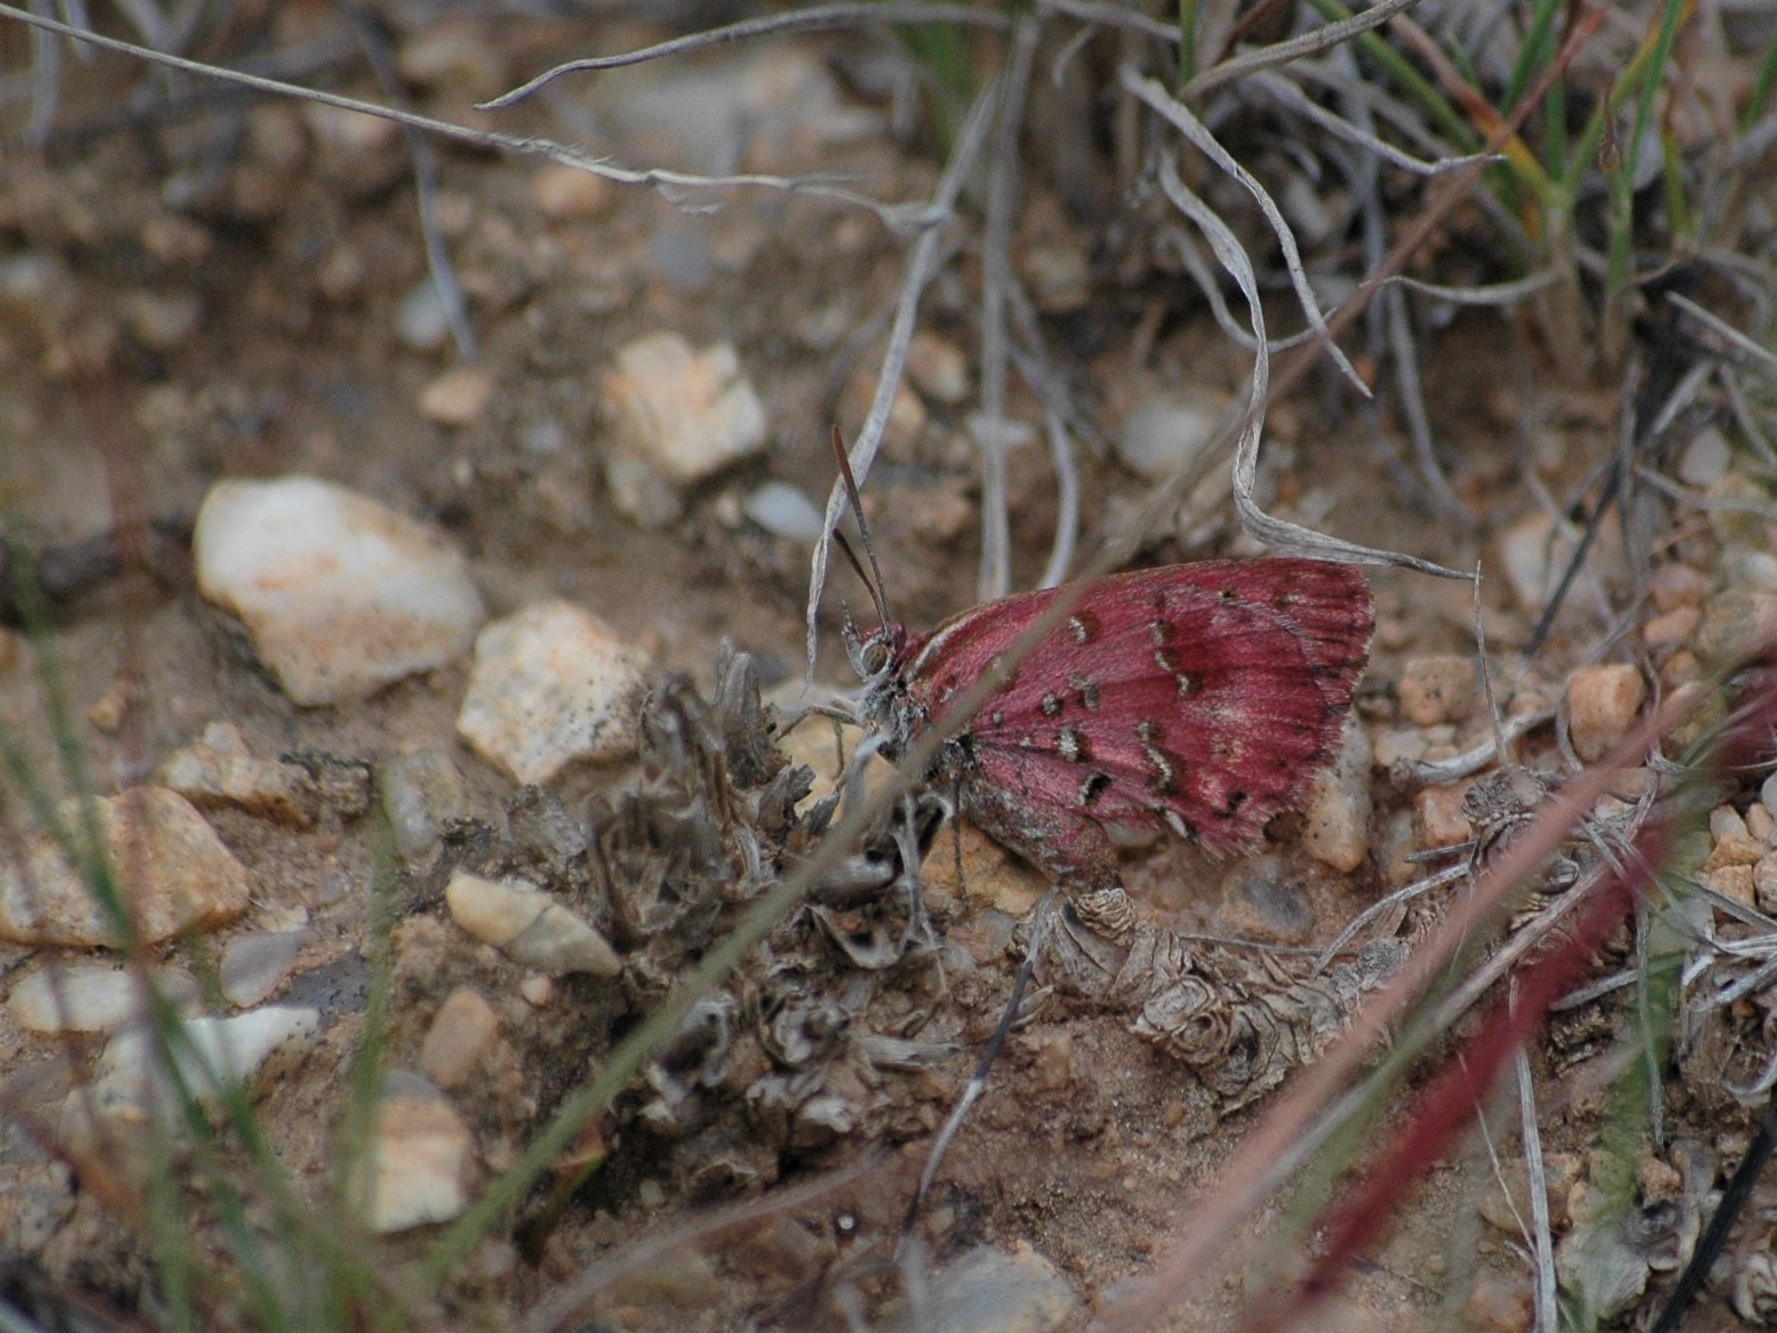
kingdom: Animalia
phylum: Arthropoda
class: Insecta
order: Lepidoptera
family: Lycaenidae
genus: Aloeides
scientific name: Aloeides aranda
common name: Aranda copper
